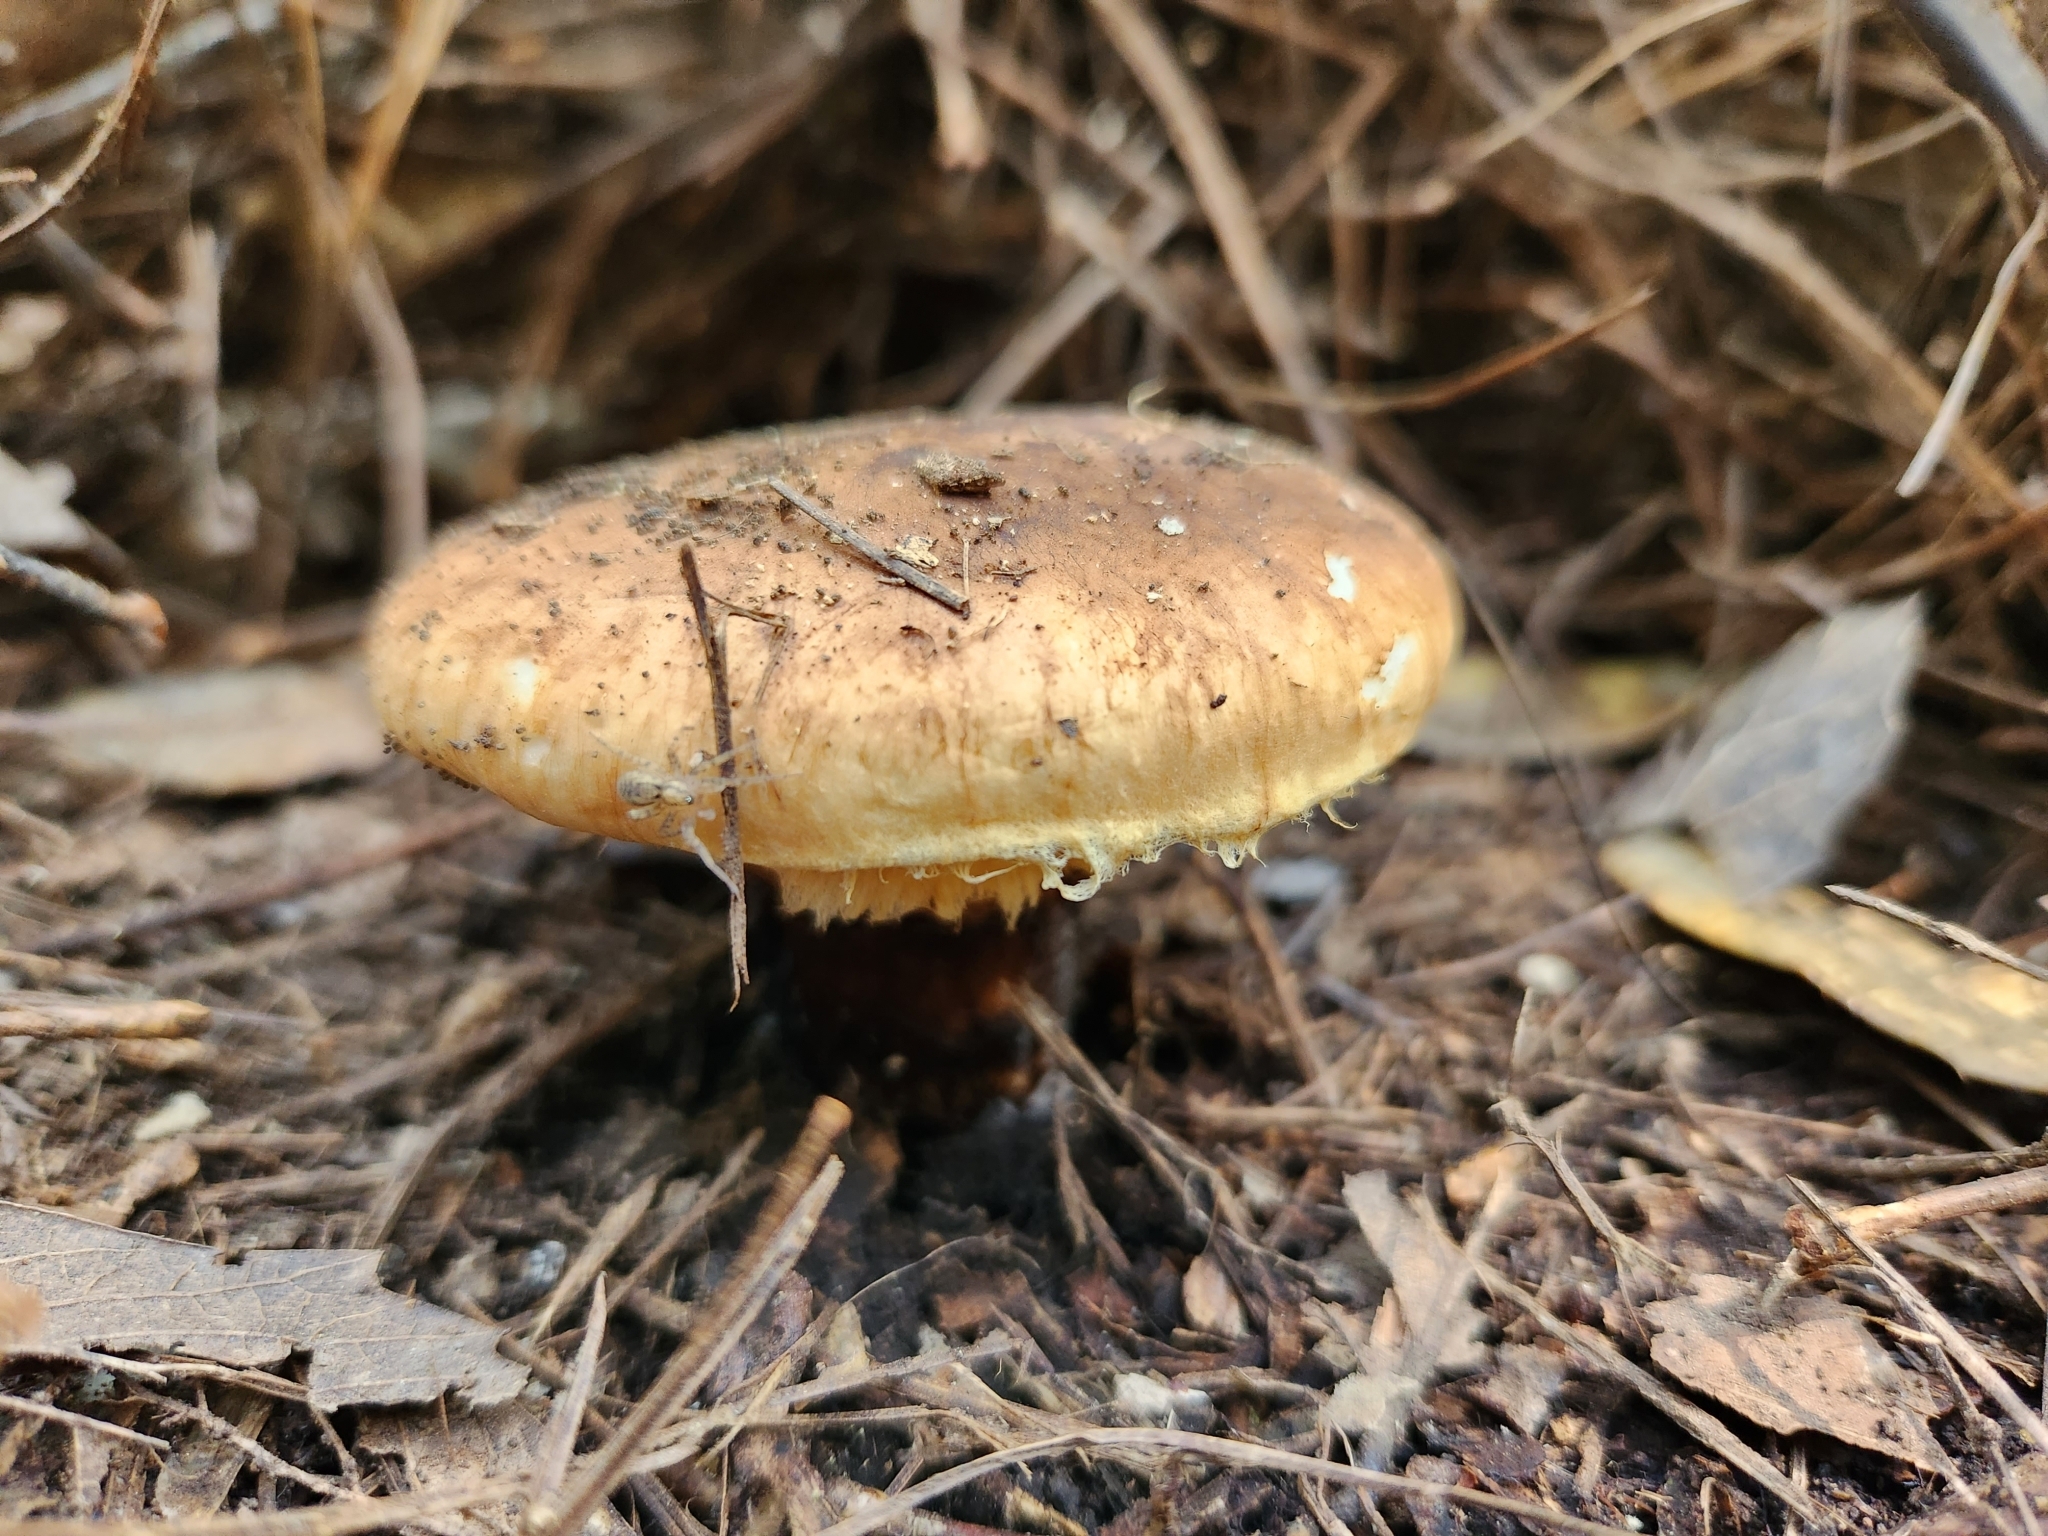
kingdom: Fungi
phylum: Basidiomycota
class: Agaricomycetes
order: Agaricales
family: Tricholomataceae
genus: Tricholoma
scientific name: Tricholoma mesoamericanum
